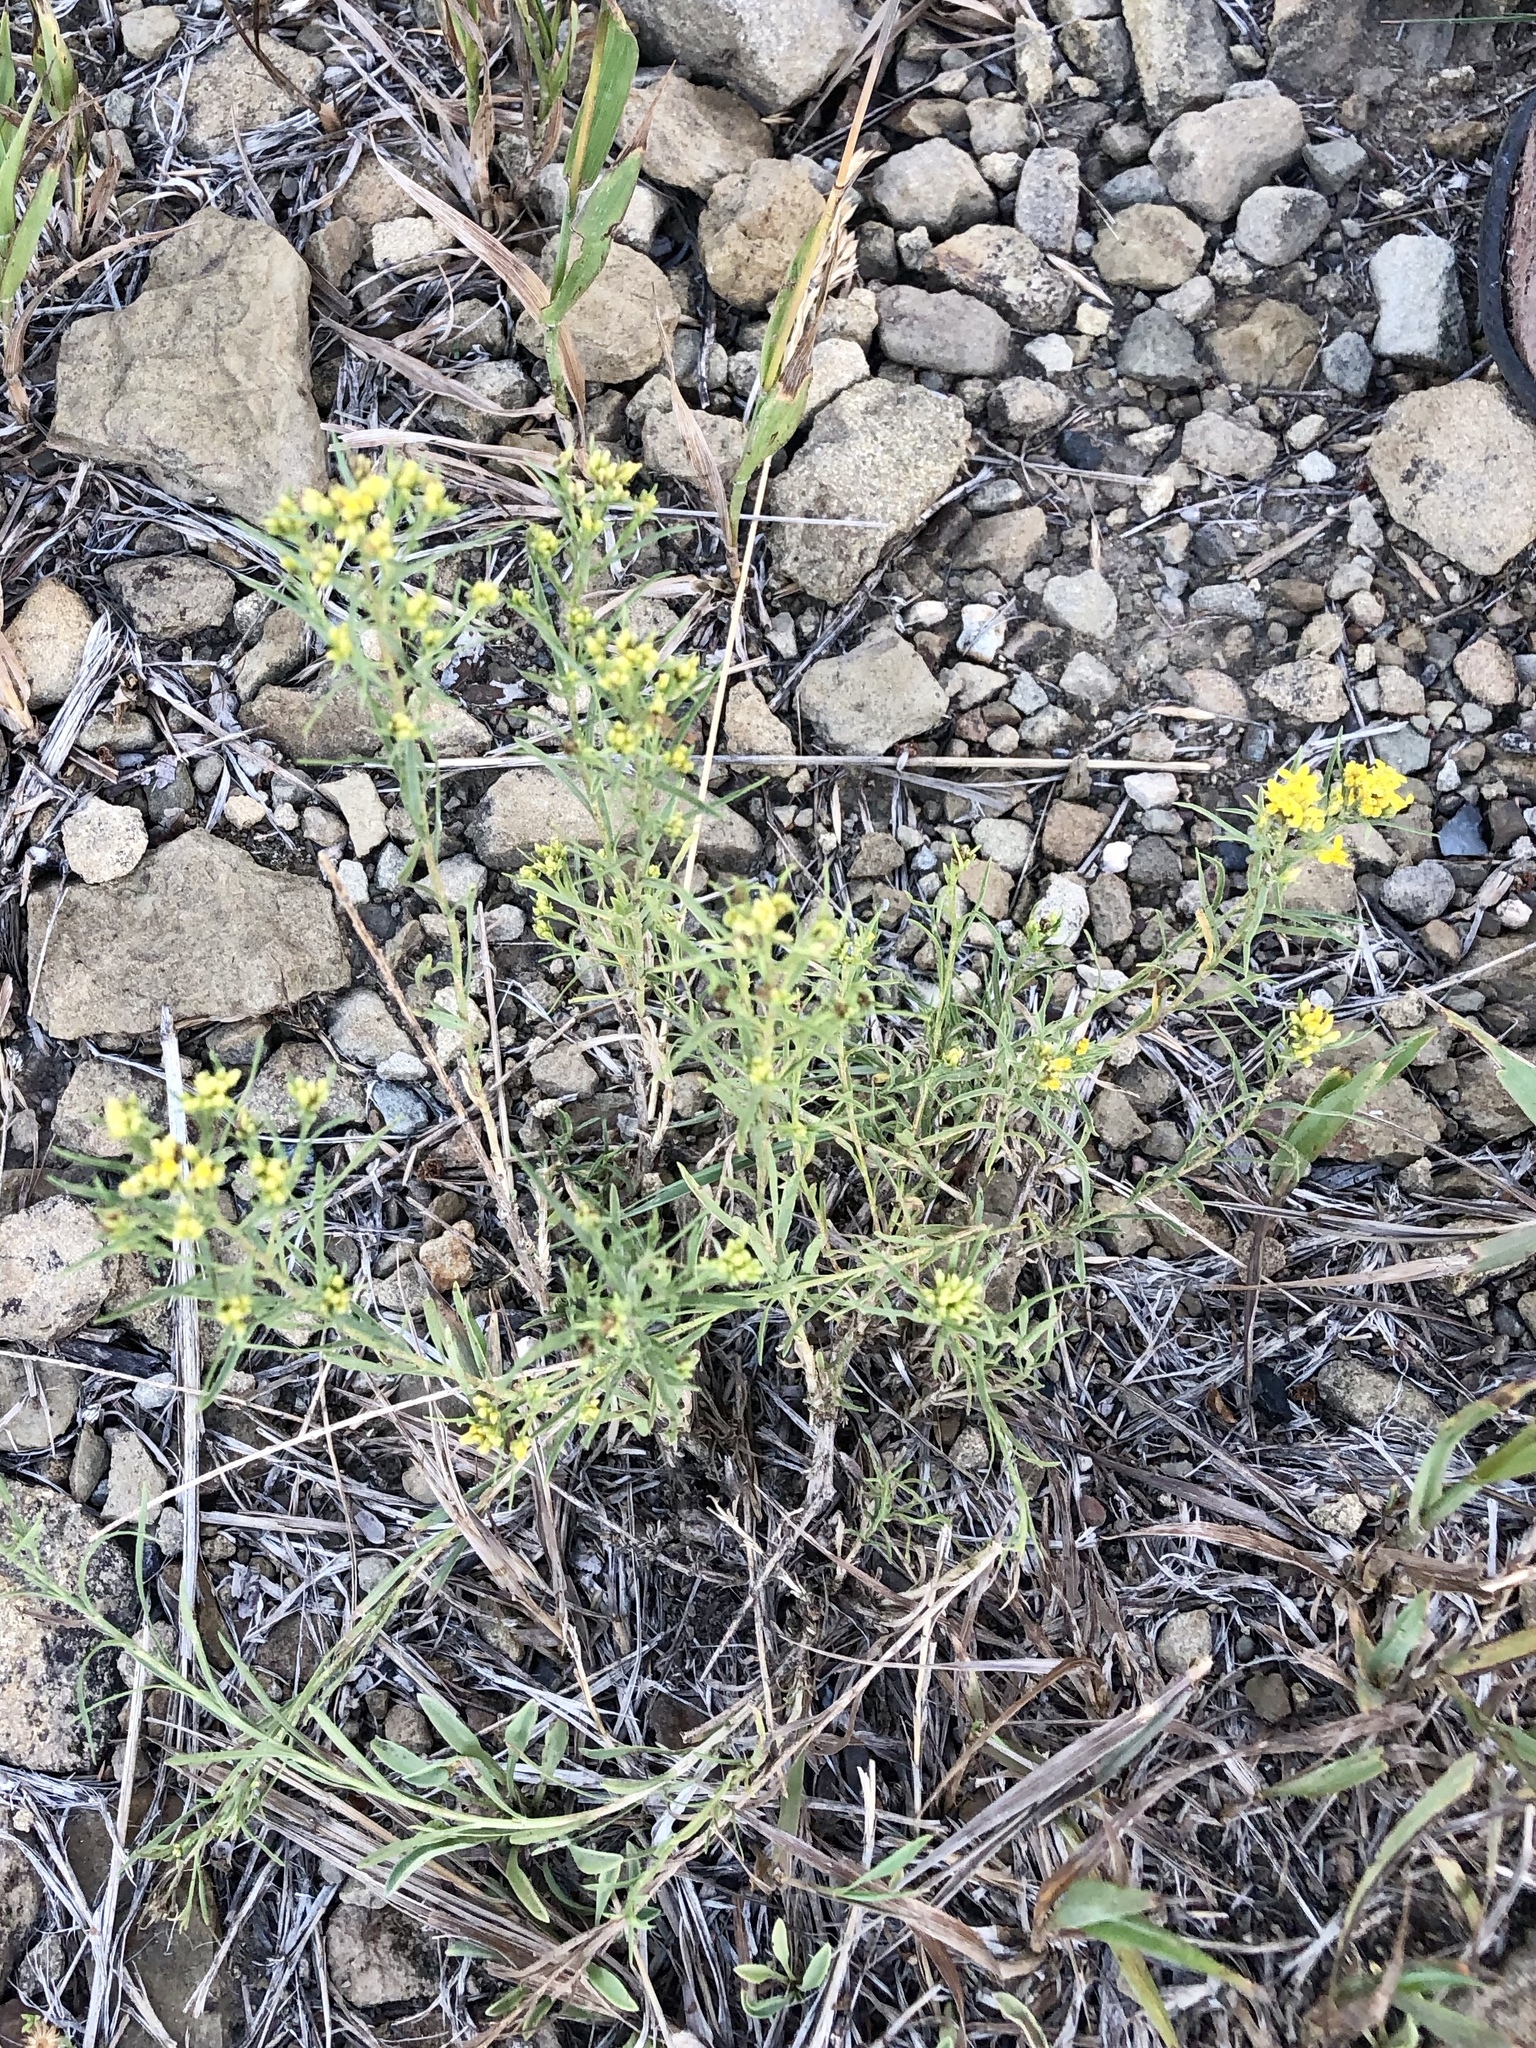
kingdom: Plantae
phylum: Tracheophyta
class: Magnoliopsida
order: Asterales
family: Asteraceae
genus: Gutierrezia
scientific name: Gutierrezia sarothrae
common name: Broom snakeweed
